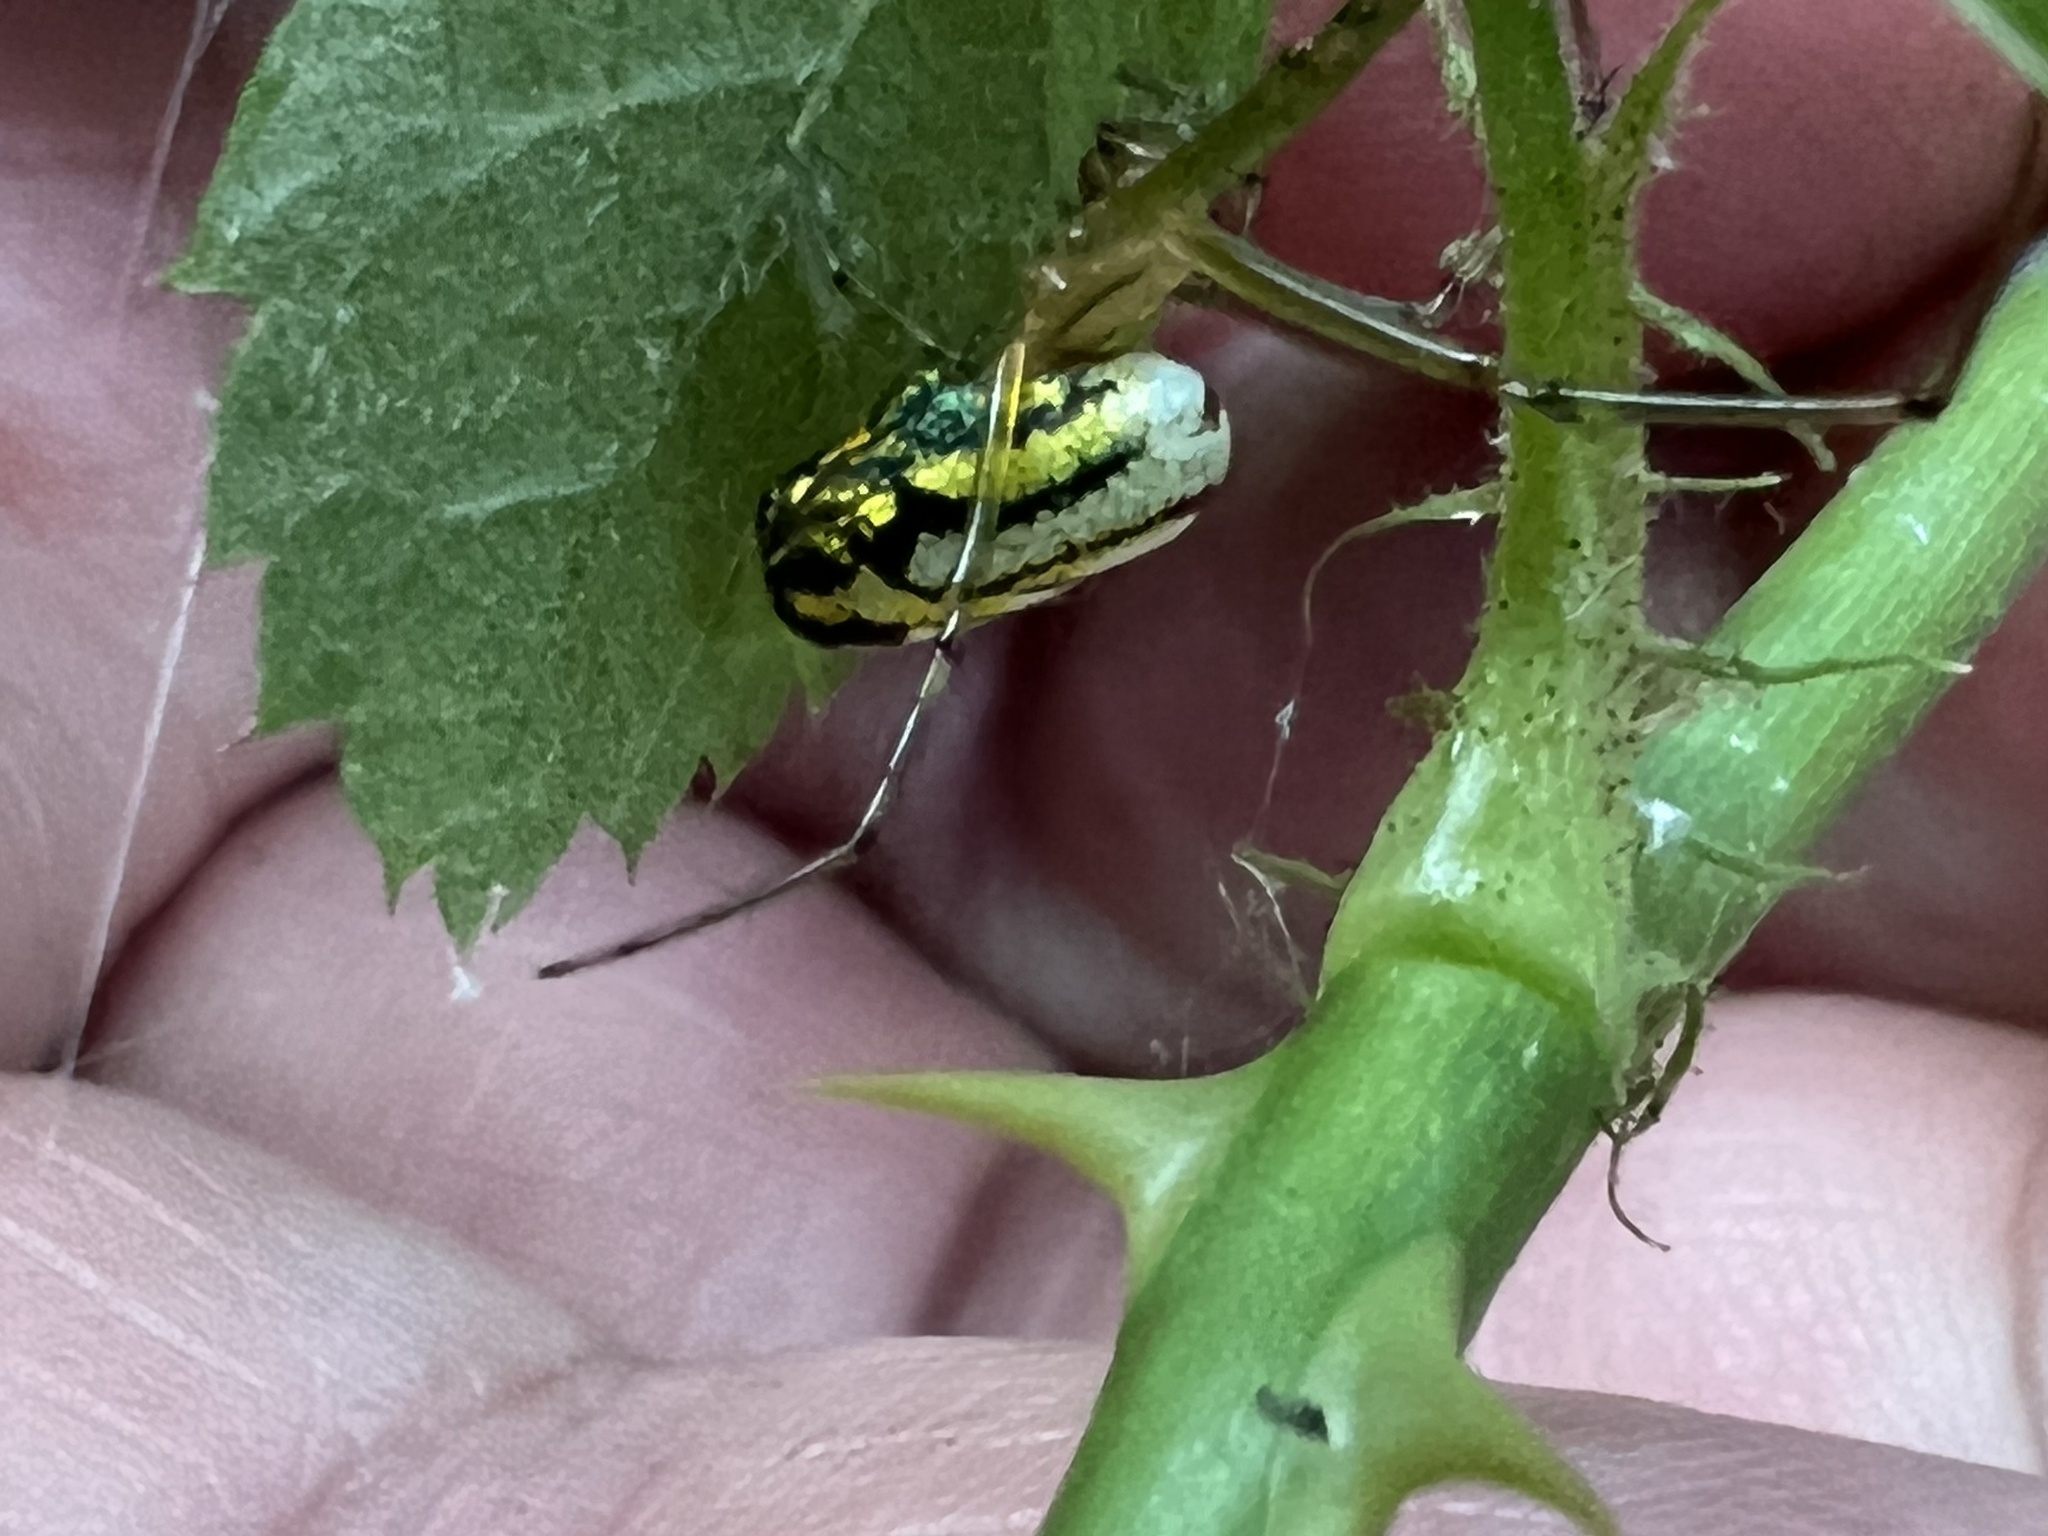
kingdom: Animalia
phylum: Arthropoda
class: Arachnida
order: Araneae
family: Tetragnathidae
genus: Leucauge
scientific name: Leucauge venusta
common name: Longjawed orb weavers
